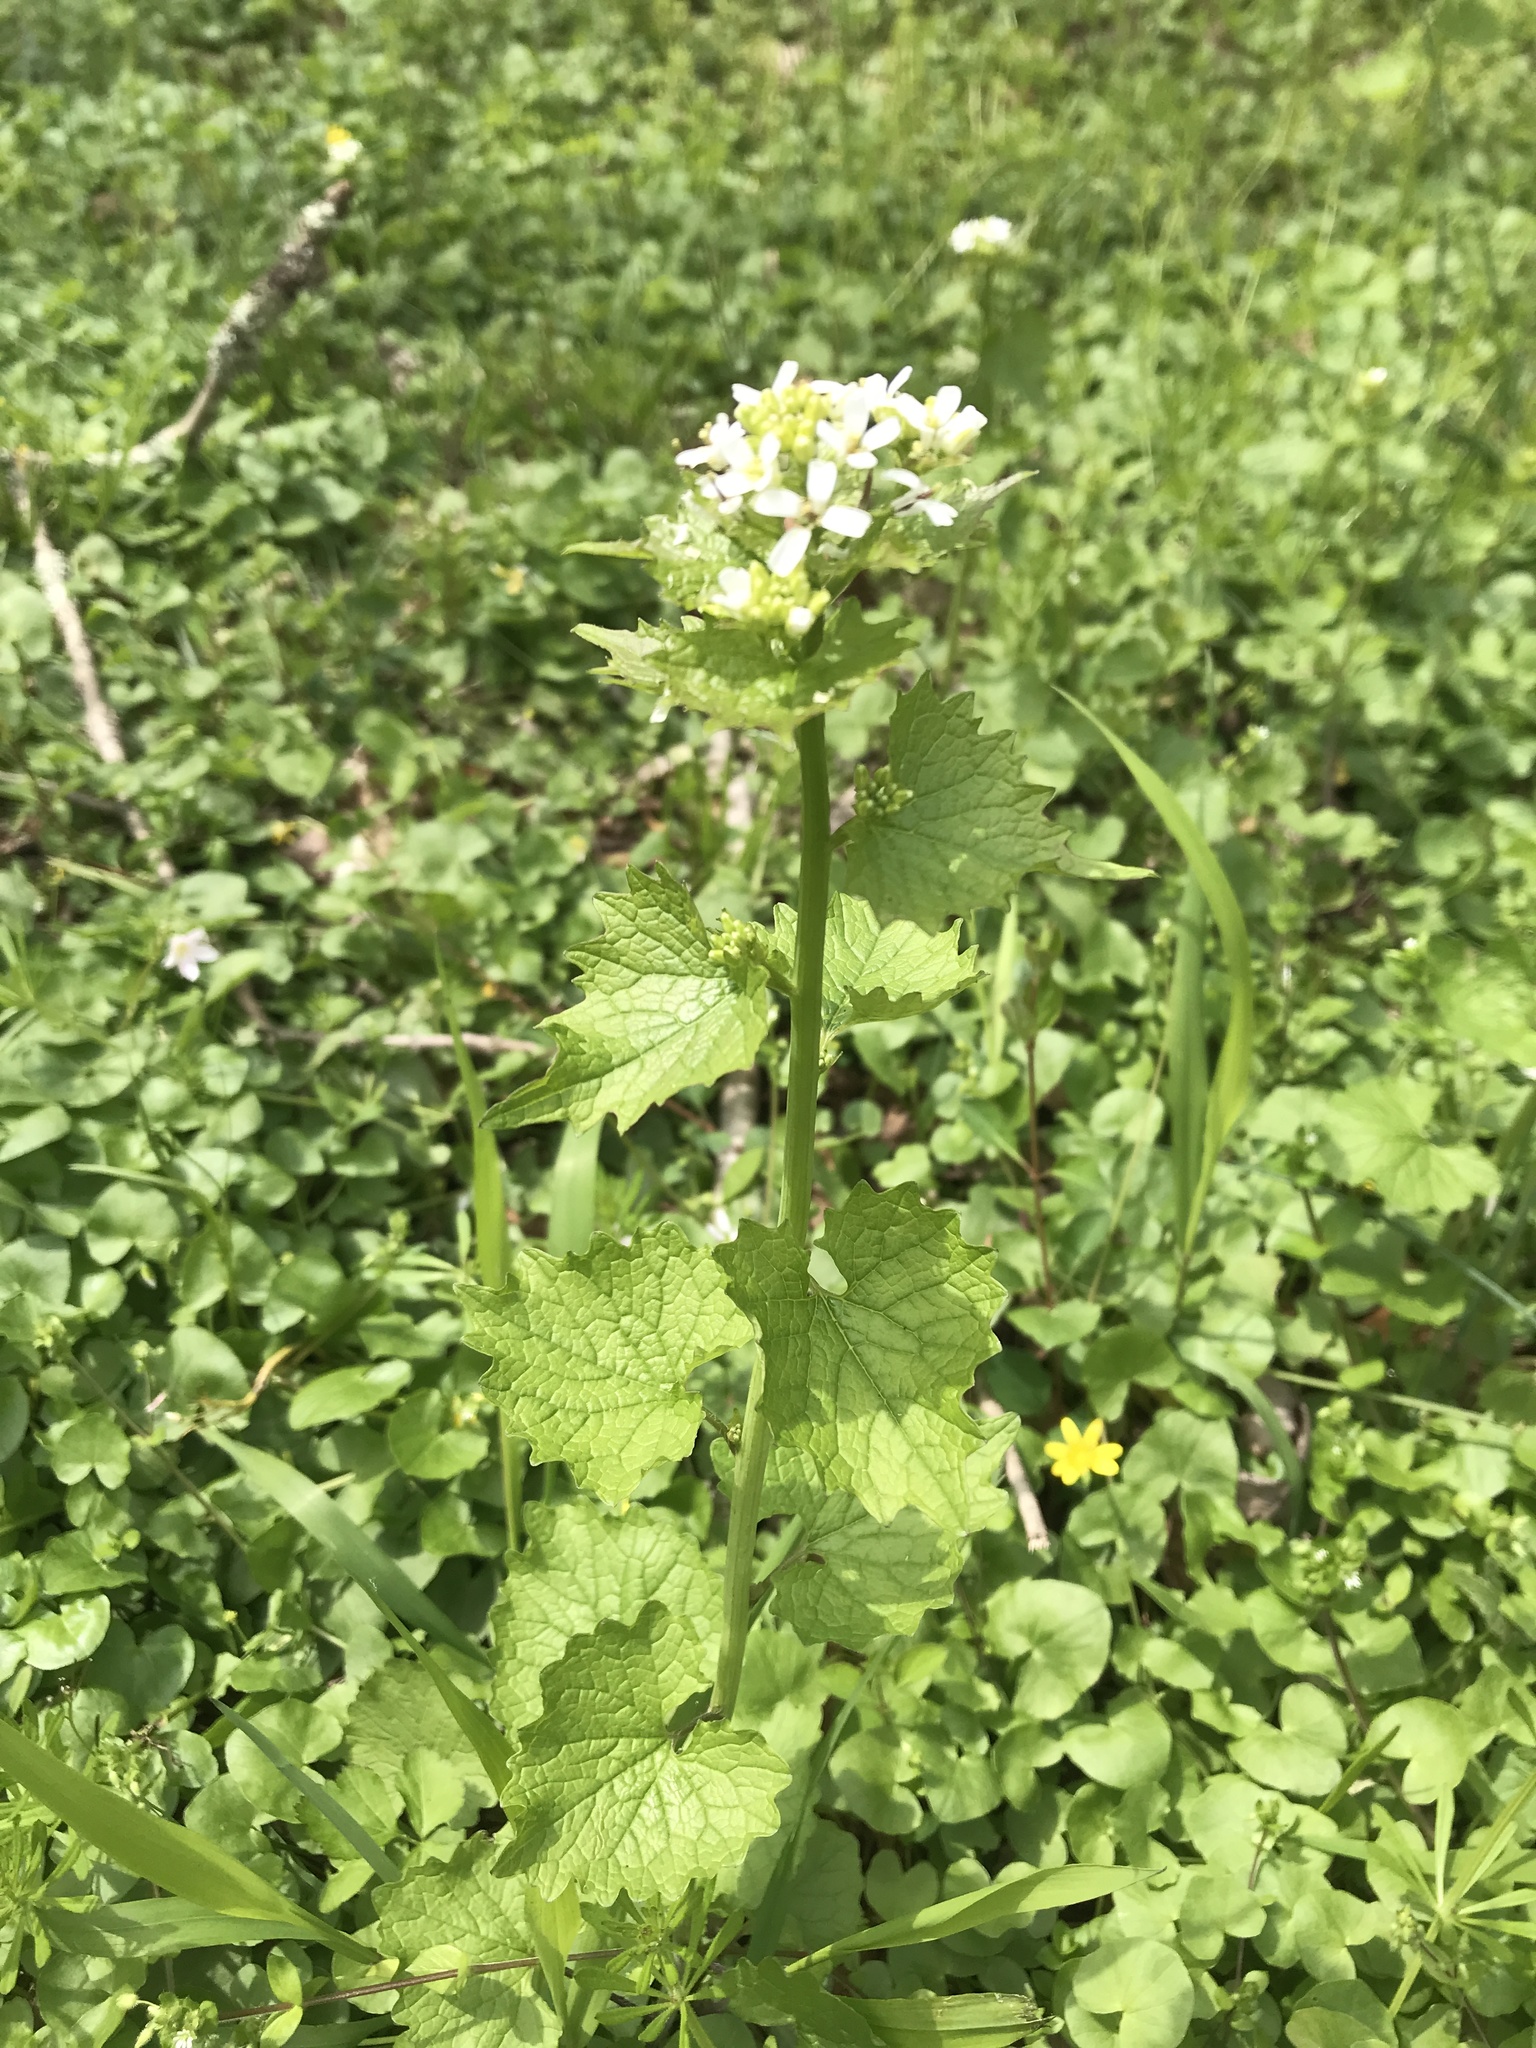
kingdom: Plantae
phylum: Tracheophyta
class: Magnoliopsida
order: Brassicales
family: Brassicaceae
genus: Alliaria
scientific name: Alliaria petiolata
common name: Garlic mustard
